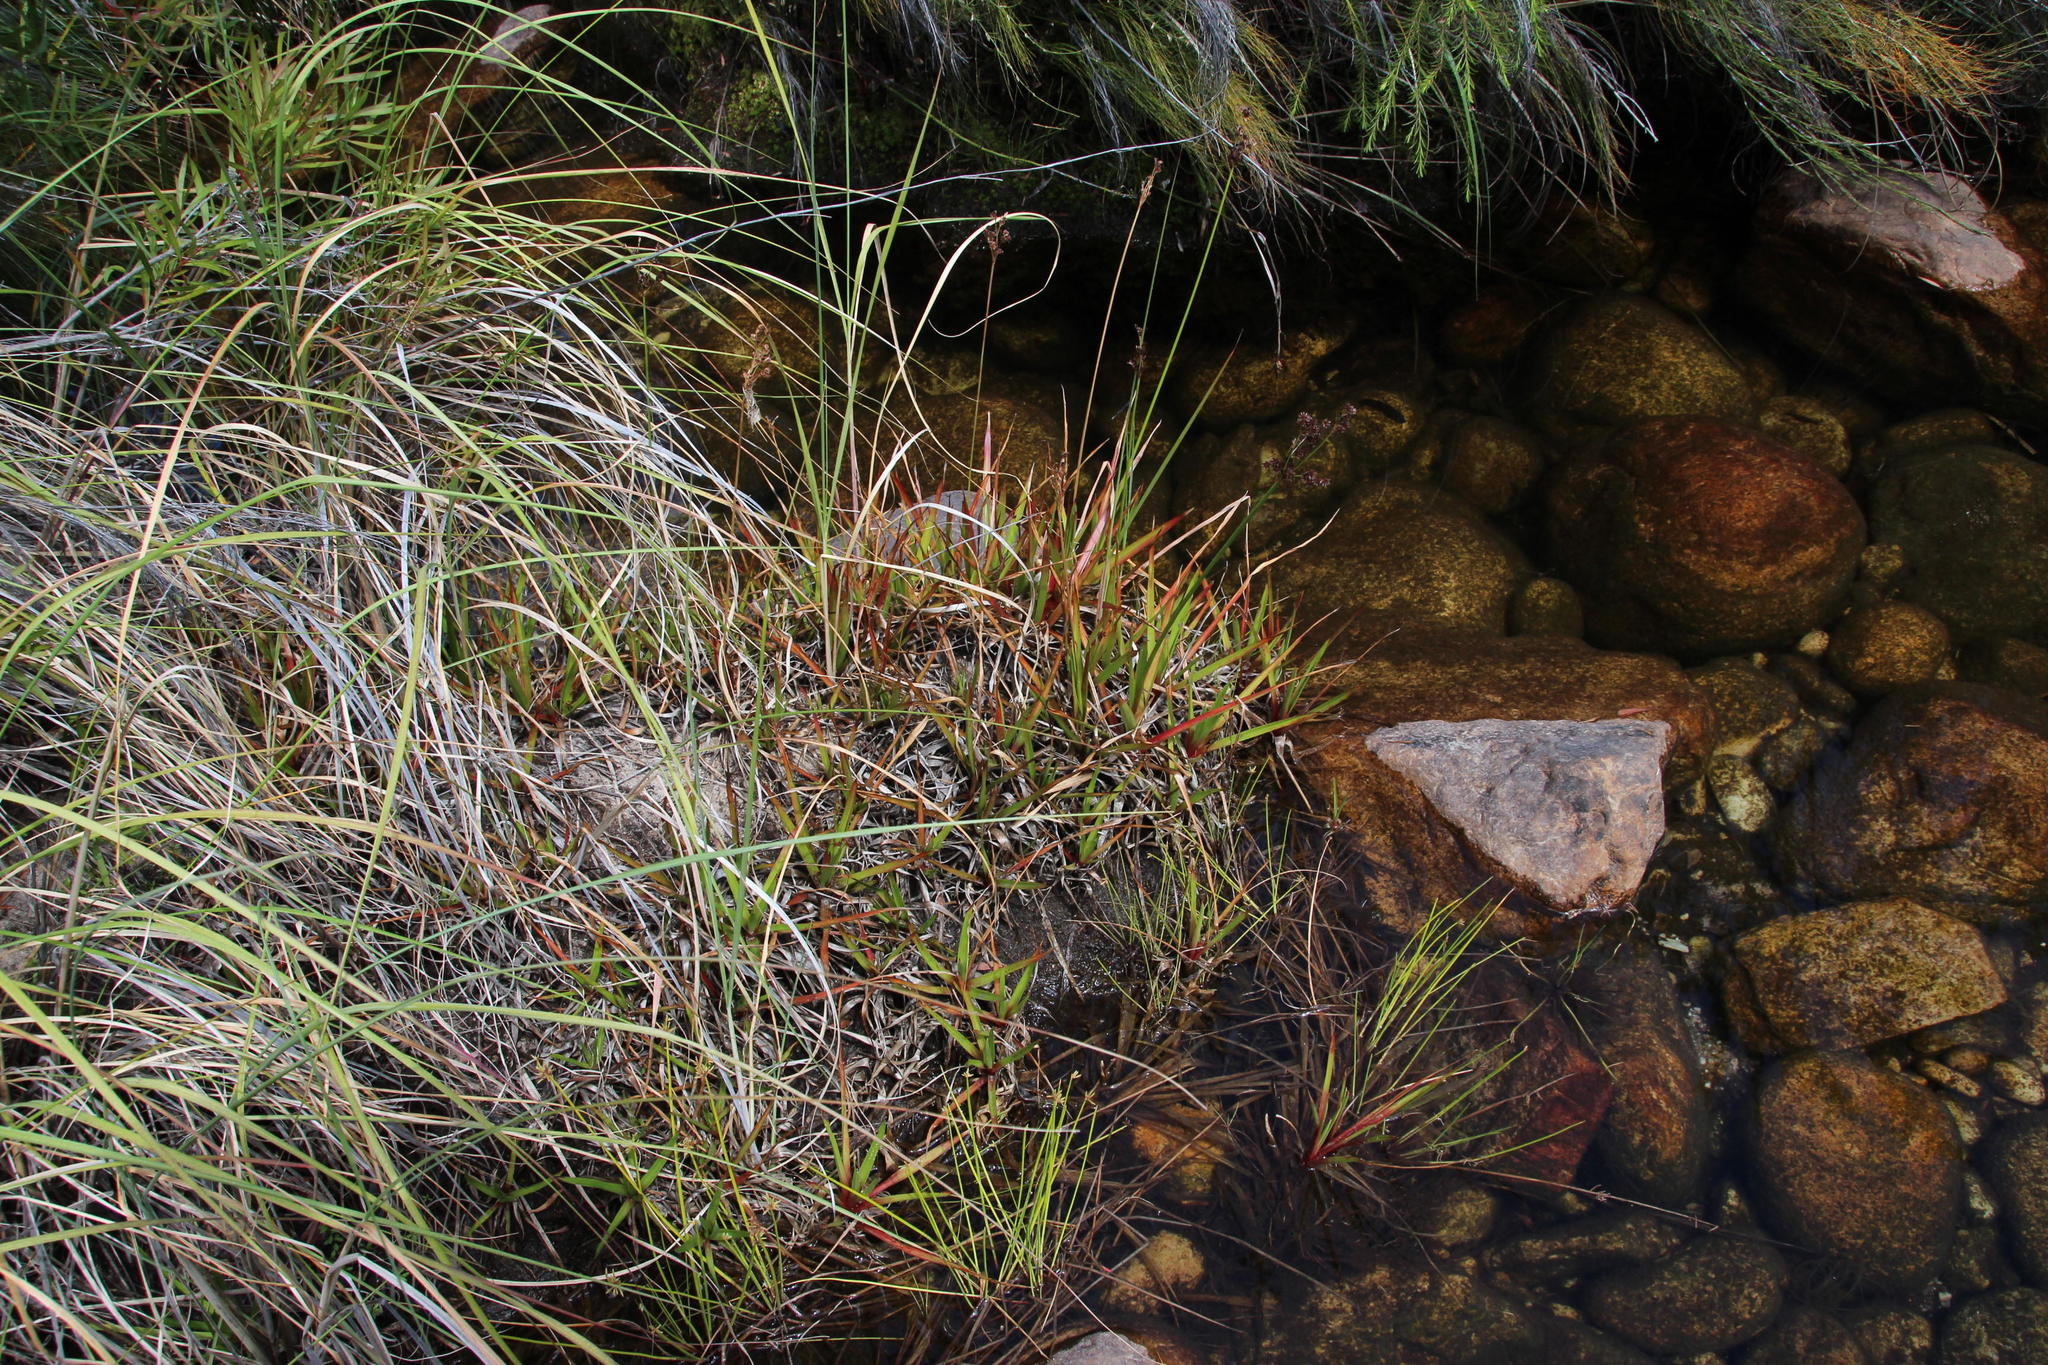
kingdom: Plantae
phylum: Tracheophyta
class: Liliopsida
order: Poales
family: Juncaceae
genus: Juncus
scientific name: Juncus lomatophyllus
